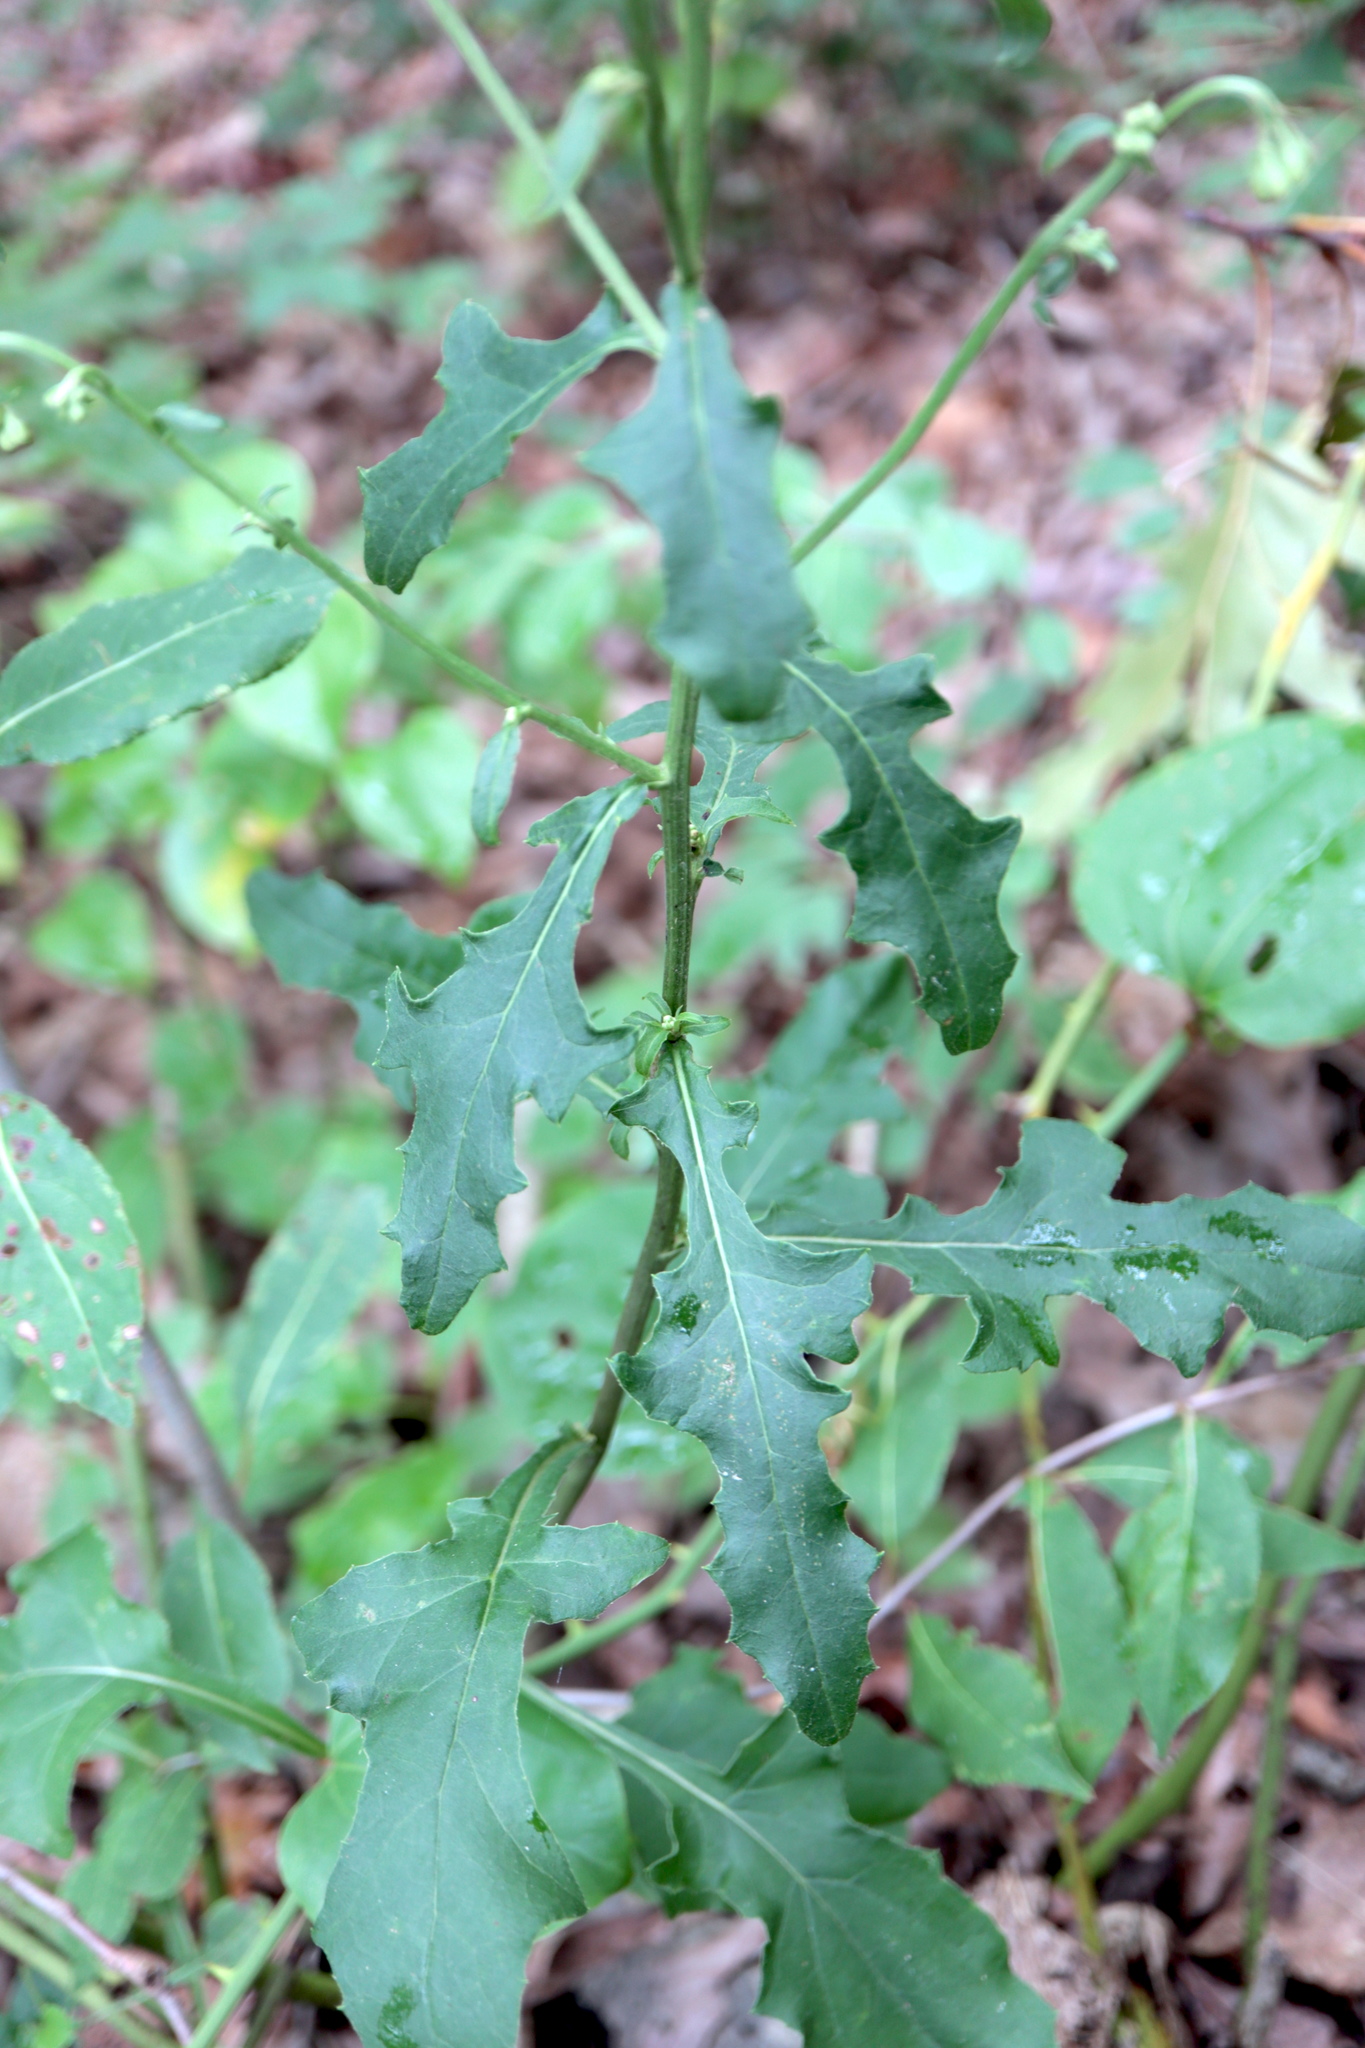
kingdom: Plantae
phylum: Tracheophyta
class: Magnoliopsida
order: Asterales
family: Asteraceae
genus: Nabalus
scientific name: Nabalus serpentarius
